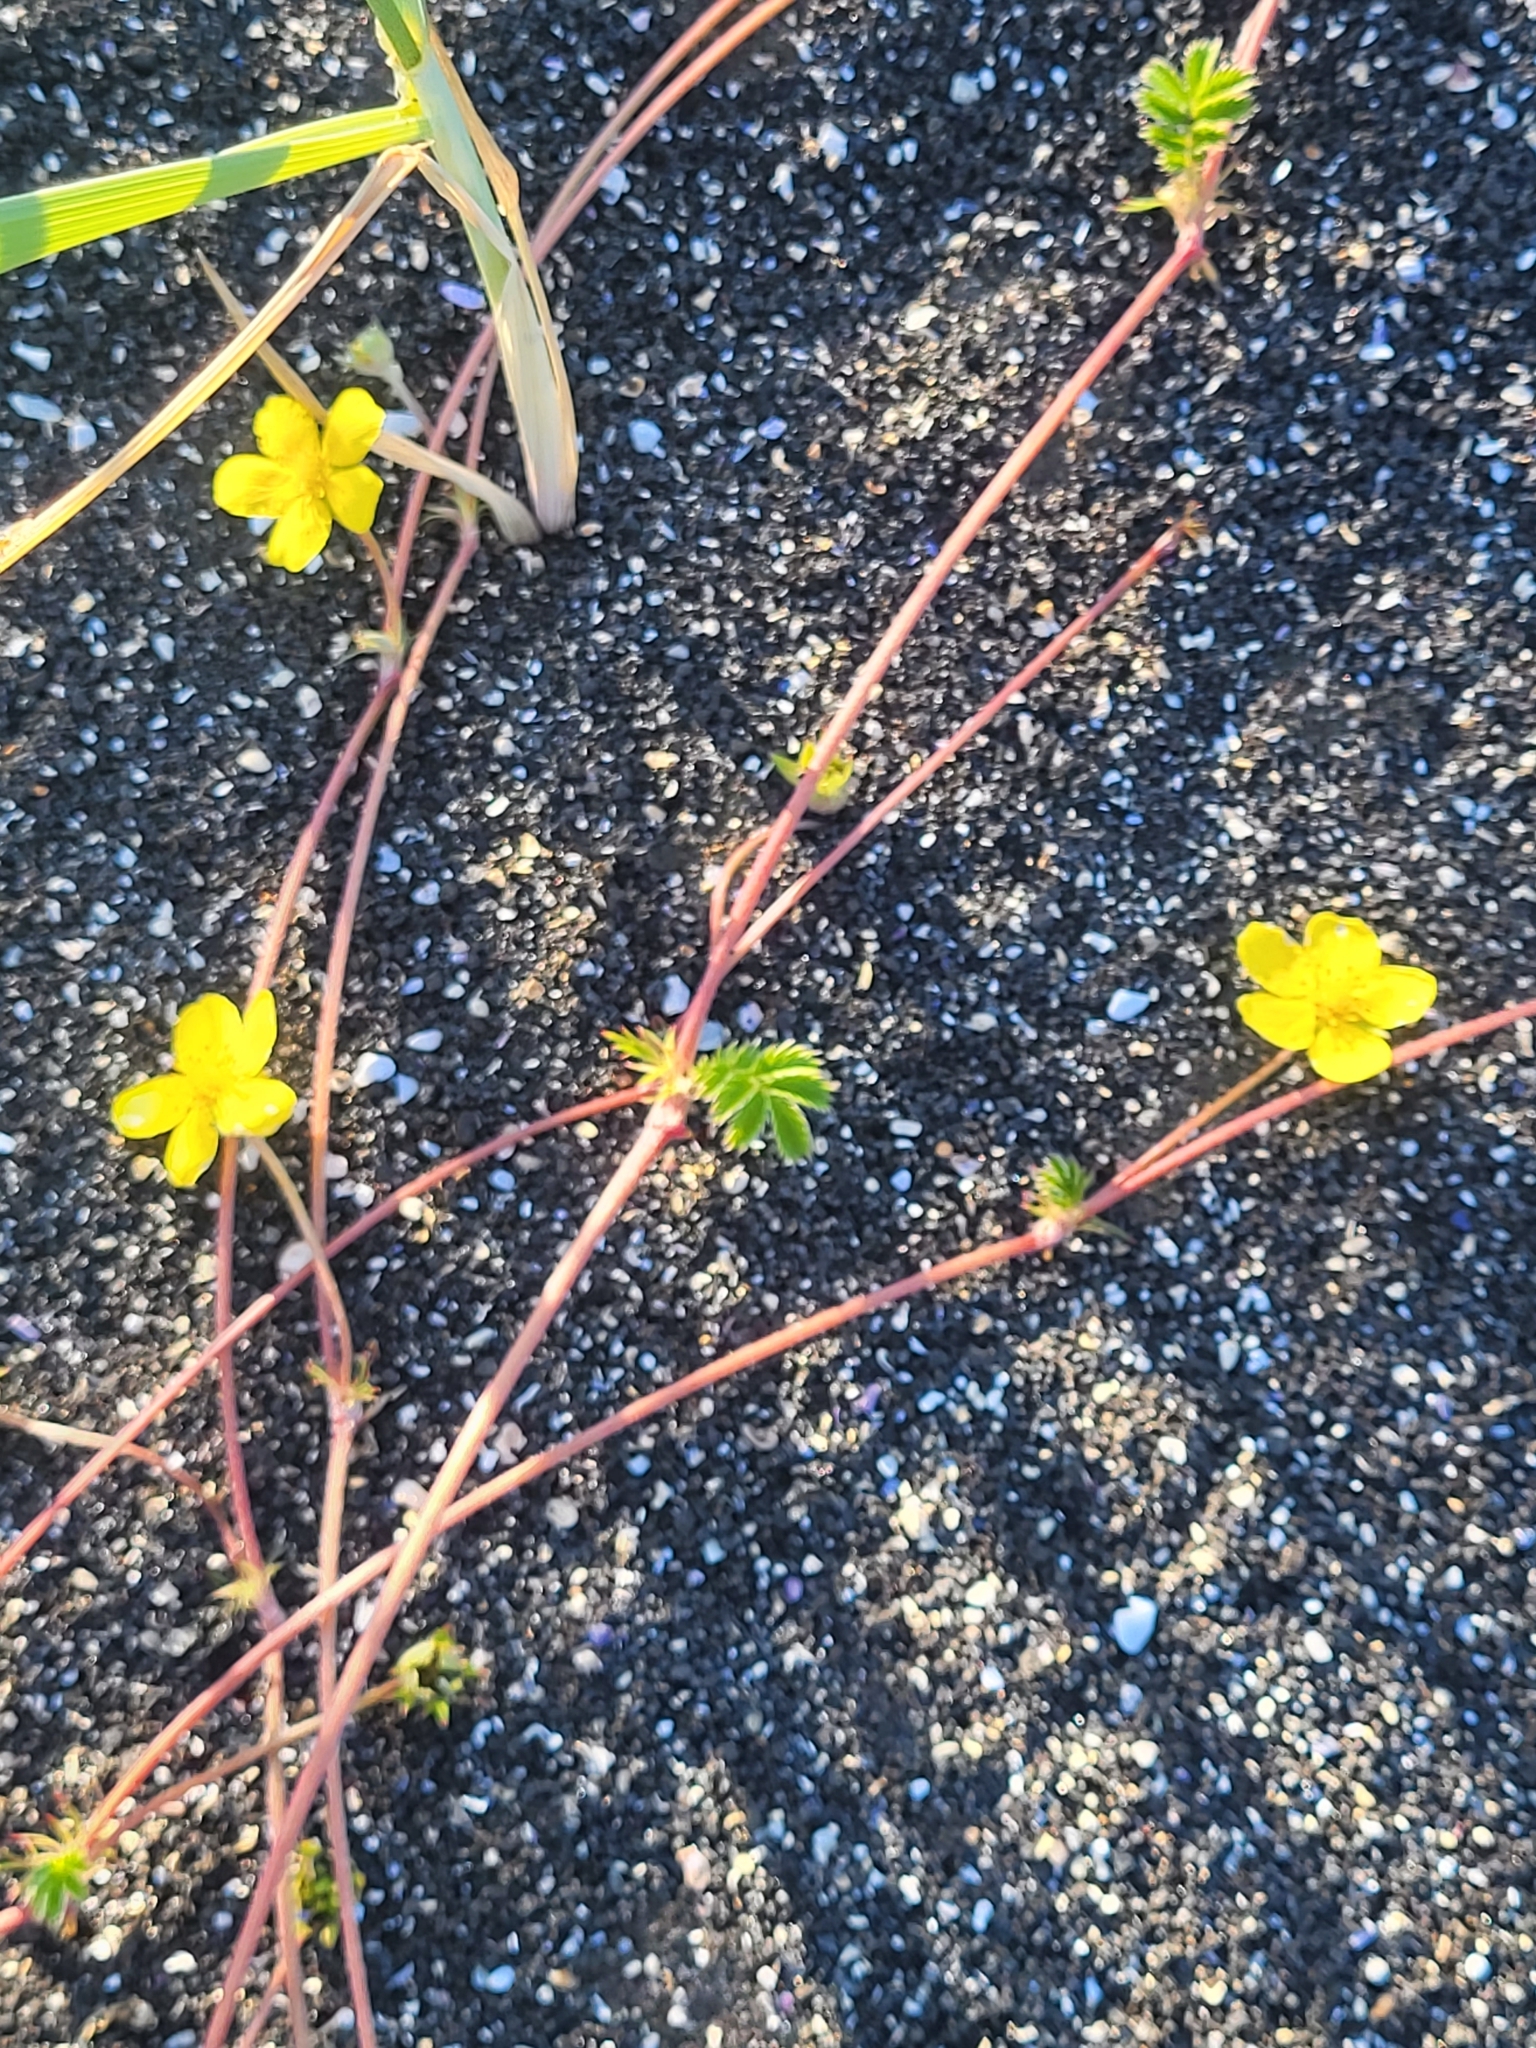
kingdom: Plantae
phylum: Tracheophyta
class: Magnoliopsida
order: Rosales
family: Rosaceae
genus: Argentina
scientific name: Argentina anserina
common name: Common silverweed
